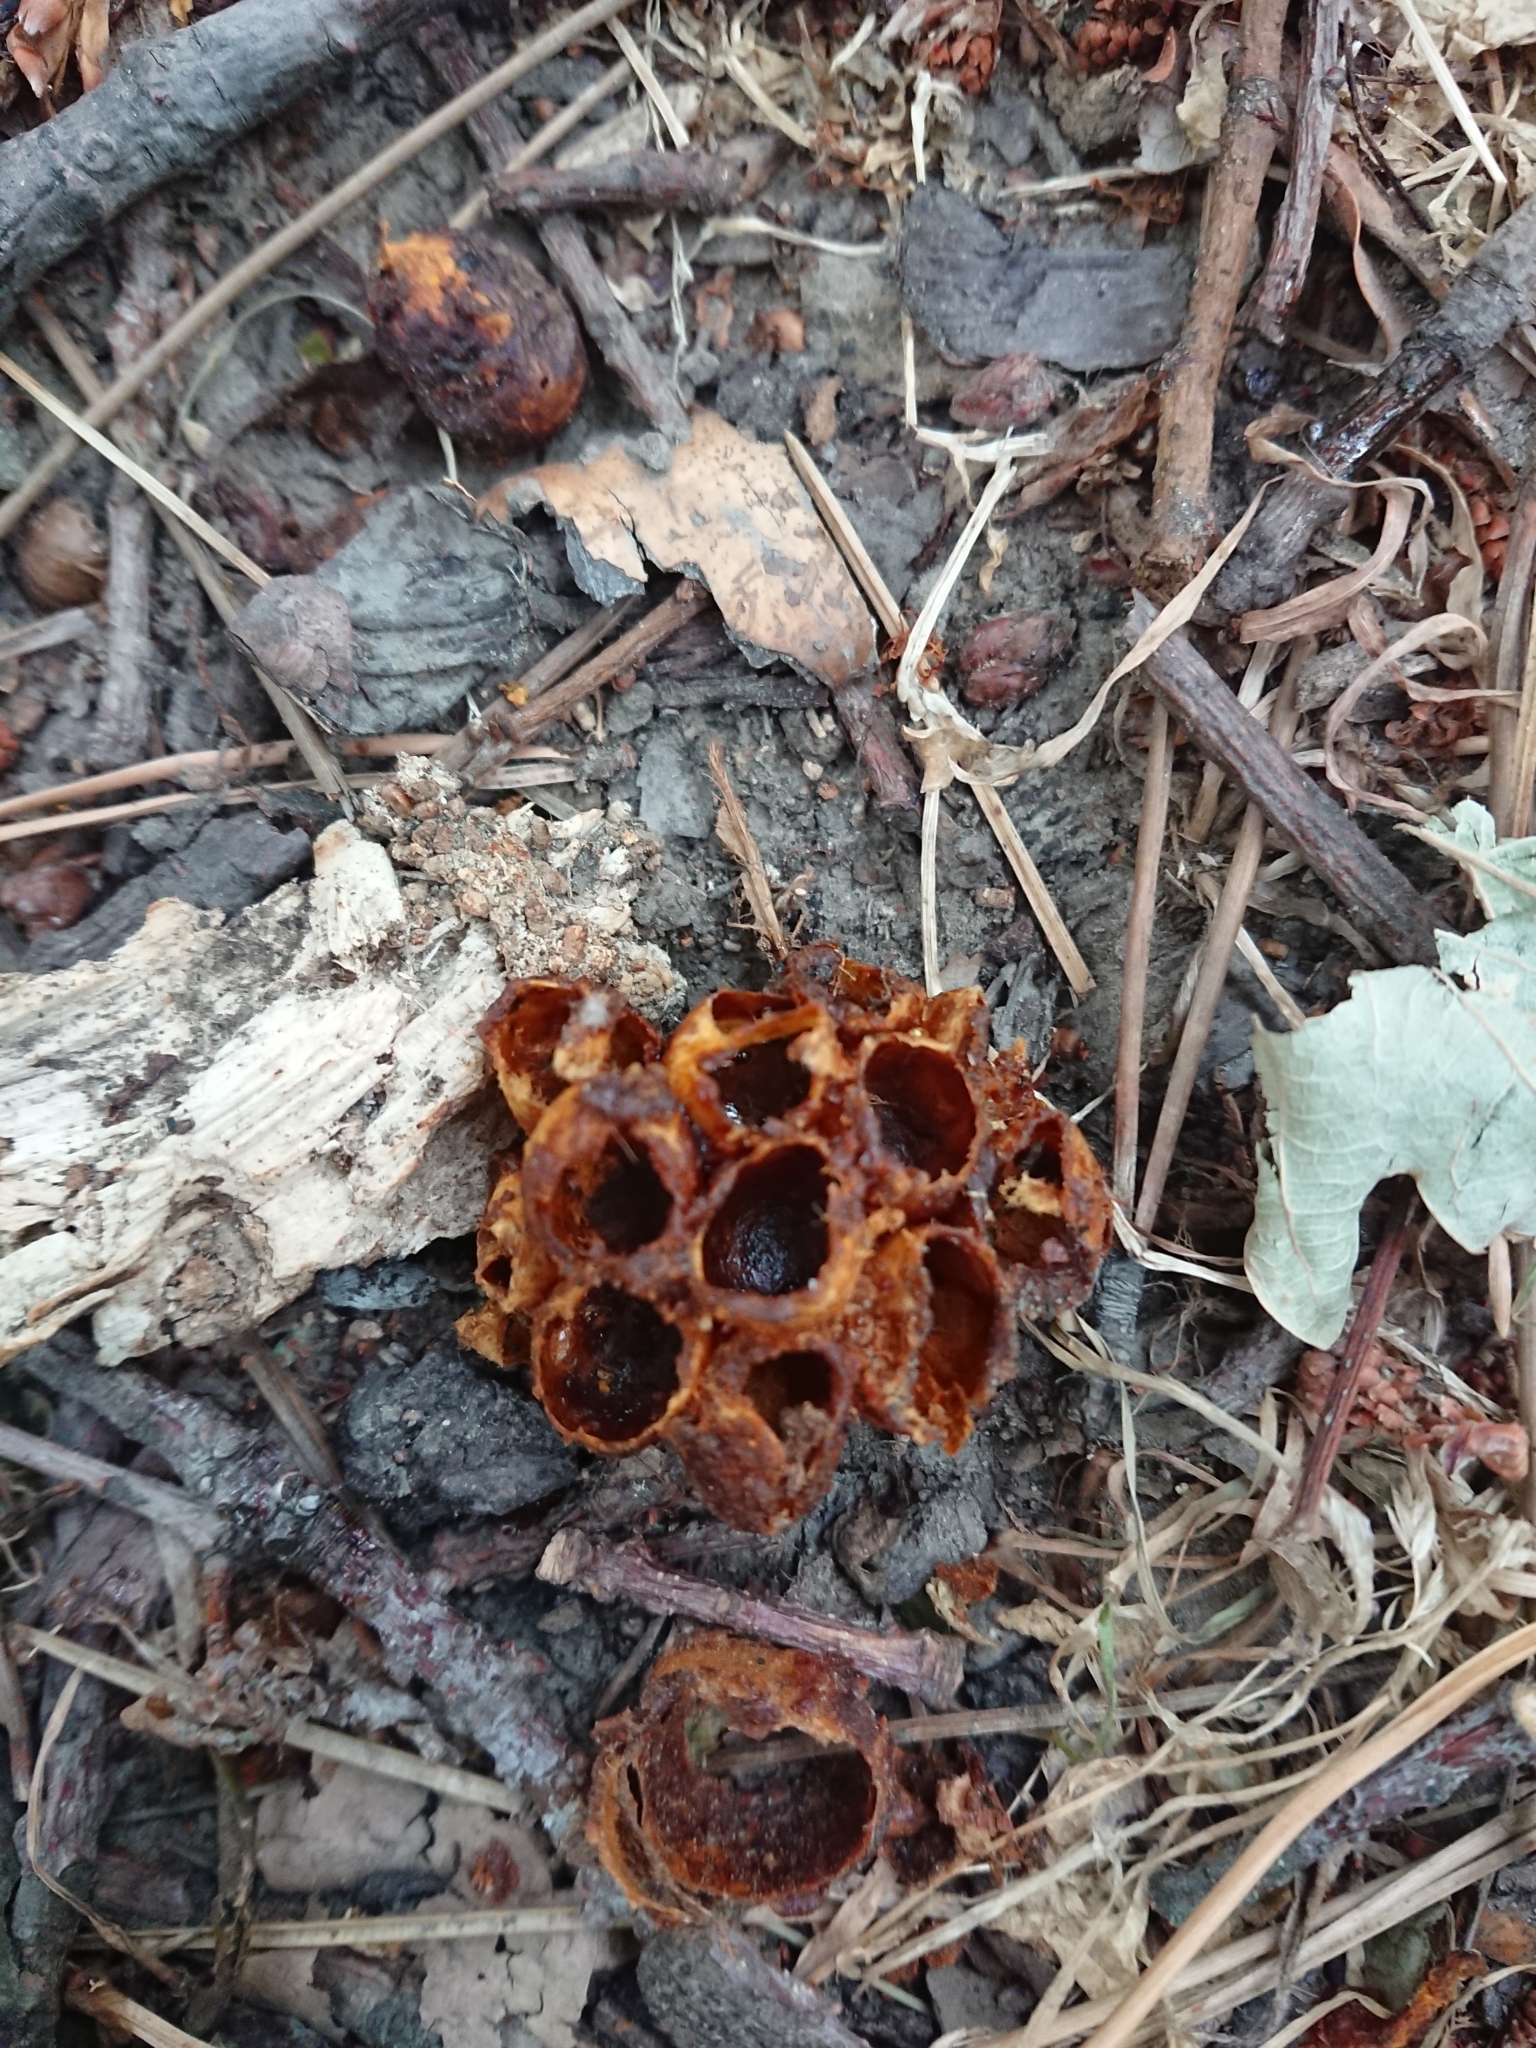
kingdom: Animalia
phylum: Arthropoda
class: Insecta
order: Hymenoptera
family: Apidae
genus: Bombus
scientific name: Bombus terrestris
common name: Buff-tailed bumblebee
